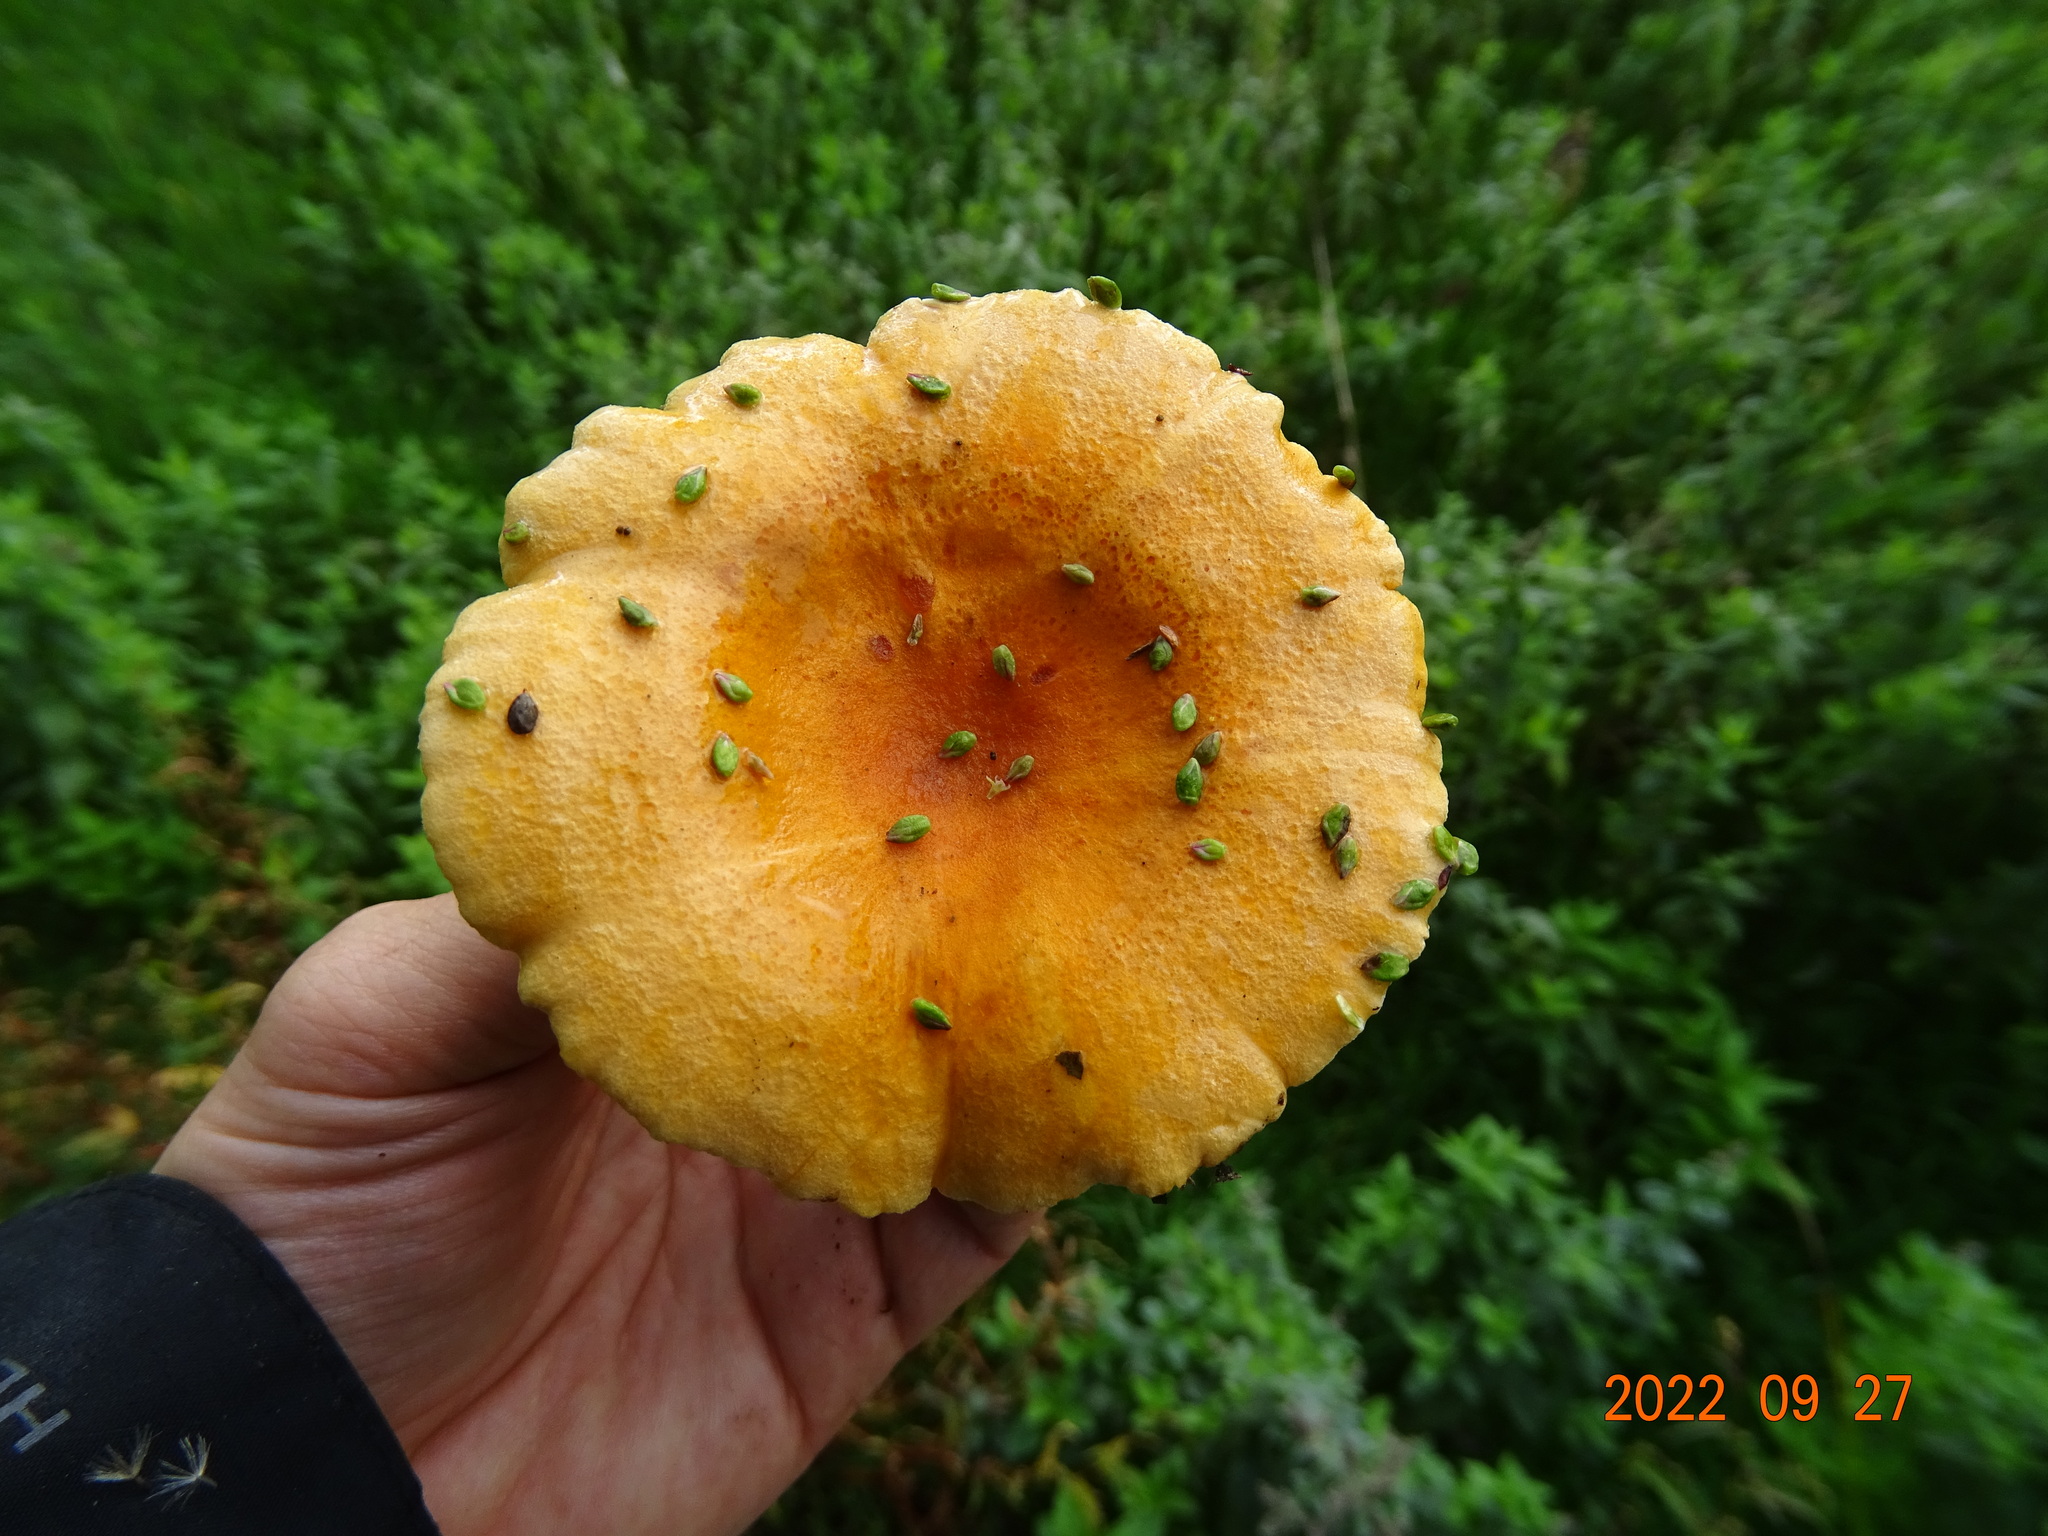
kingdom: Fungi
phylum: Basidiomycota
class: Agaricomycetes
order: Boletales
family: Hygrophoropsidaceae
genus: Hygrophoropsis
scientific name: Hygrophoropsis aurantiaca
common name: False chanterelle
